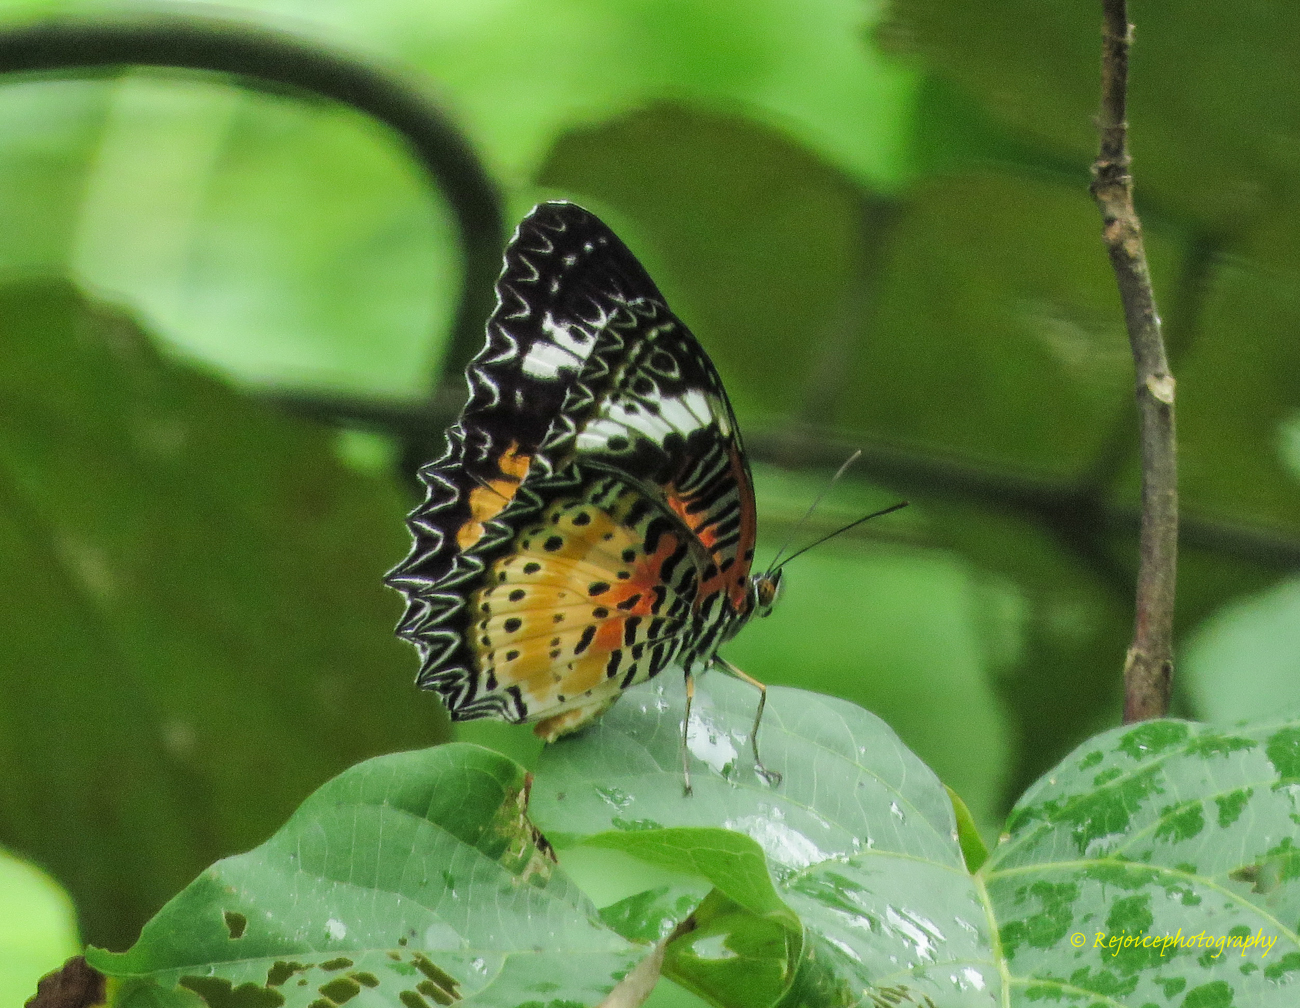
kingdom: Animalia
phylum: Arthropoda
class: Insecta
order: Lepidoptera
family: Nymphalidae
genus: Cethosia
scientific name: Cethosia cyane
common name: Leopard lacewing butterfly
